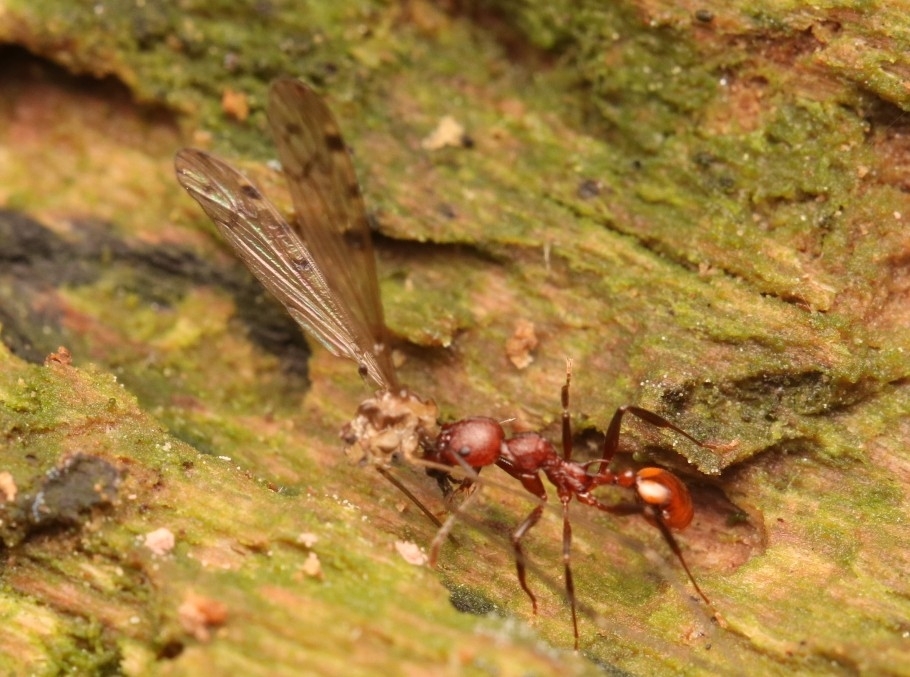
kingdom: Animalia
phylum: Arthropoda
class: Insecta
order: Hymenoptera
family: Formicidae
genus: Aphaenogaster
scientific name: Aphaenogaster tennesseensis
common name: Tennessee thread-waisted ant
